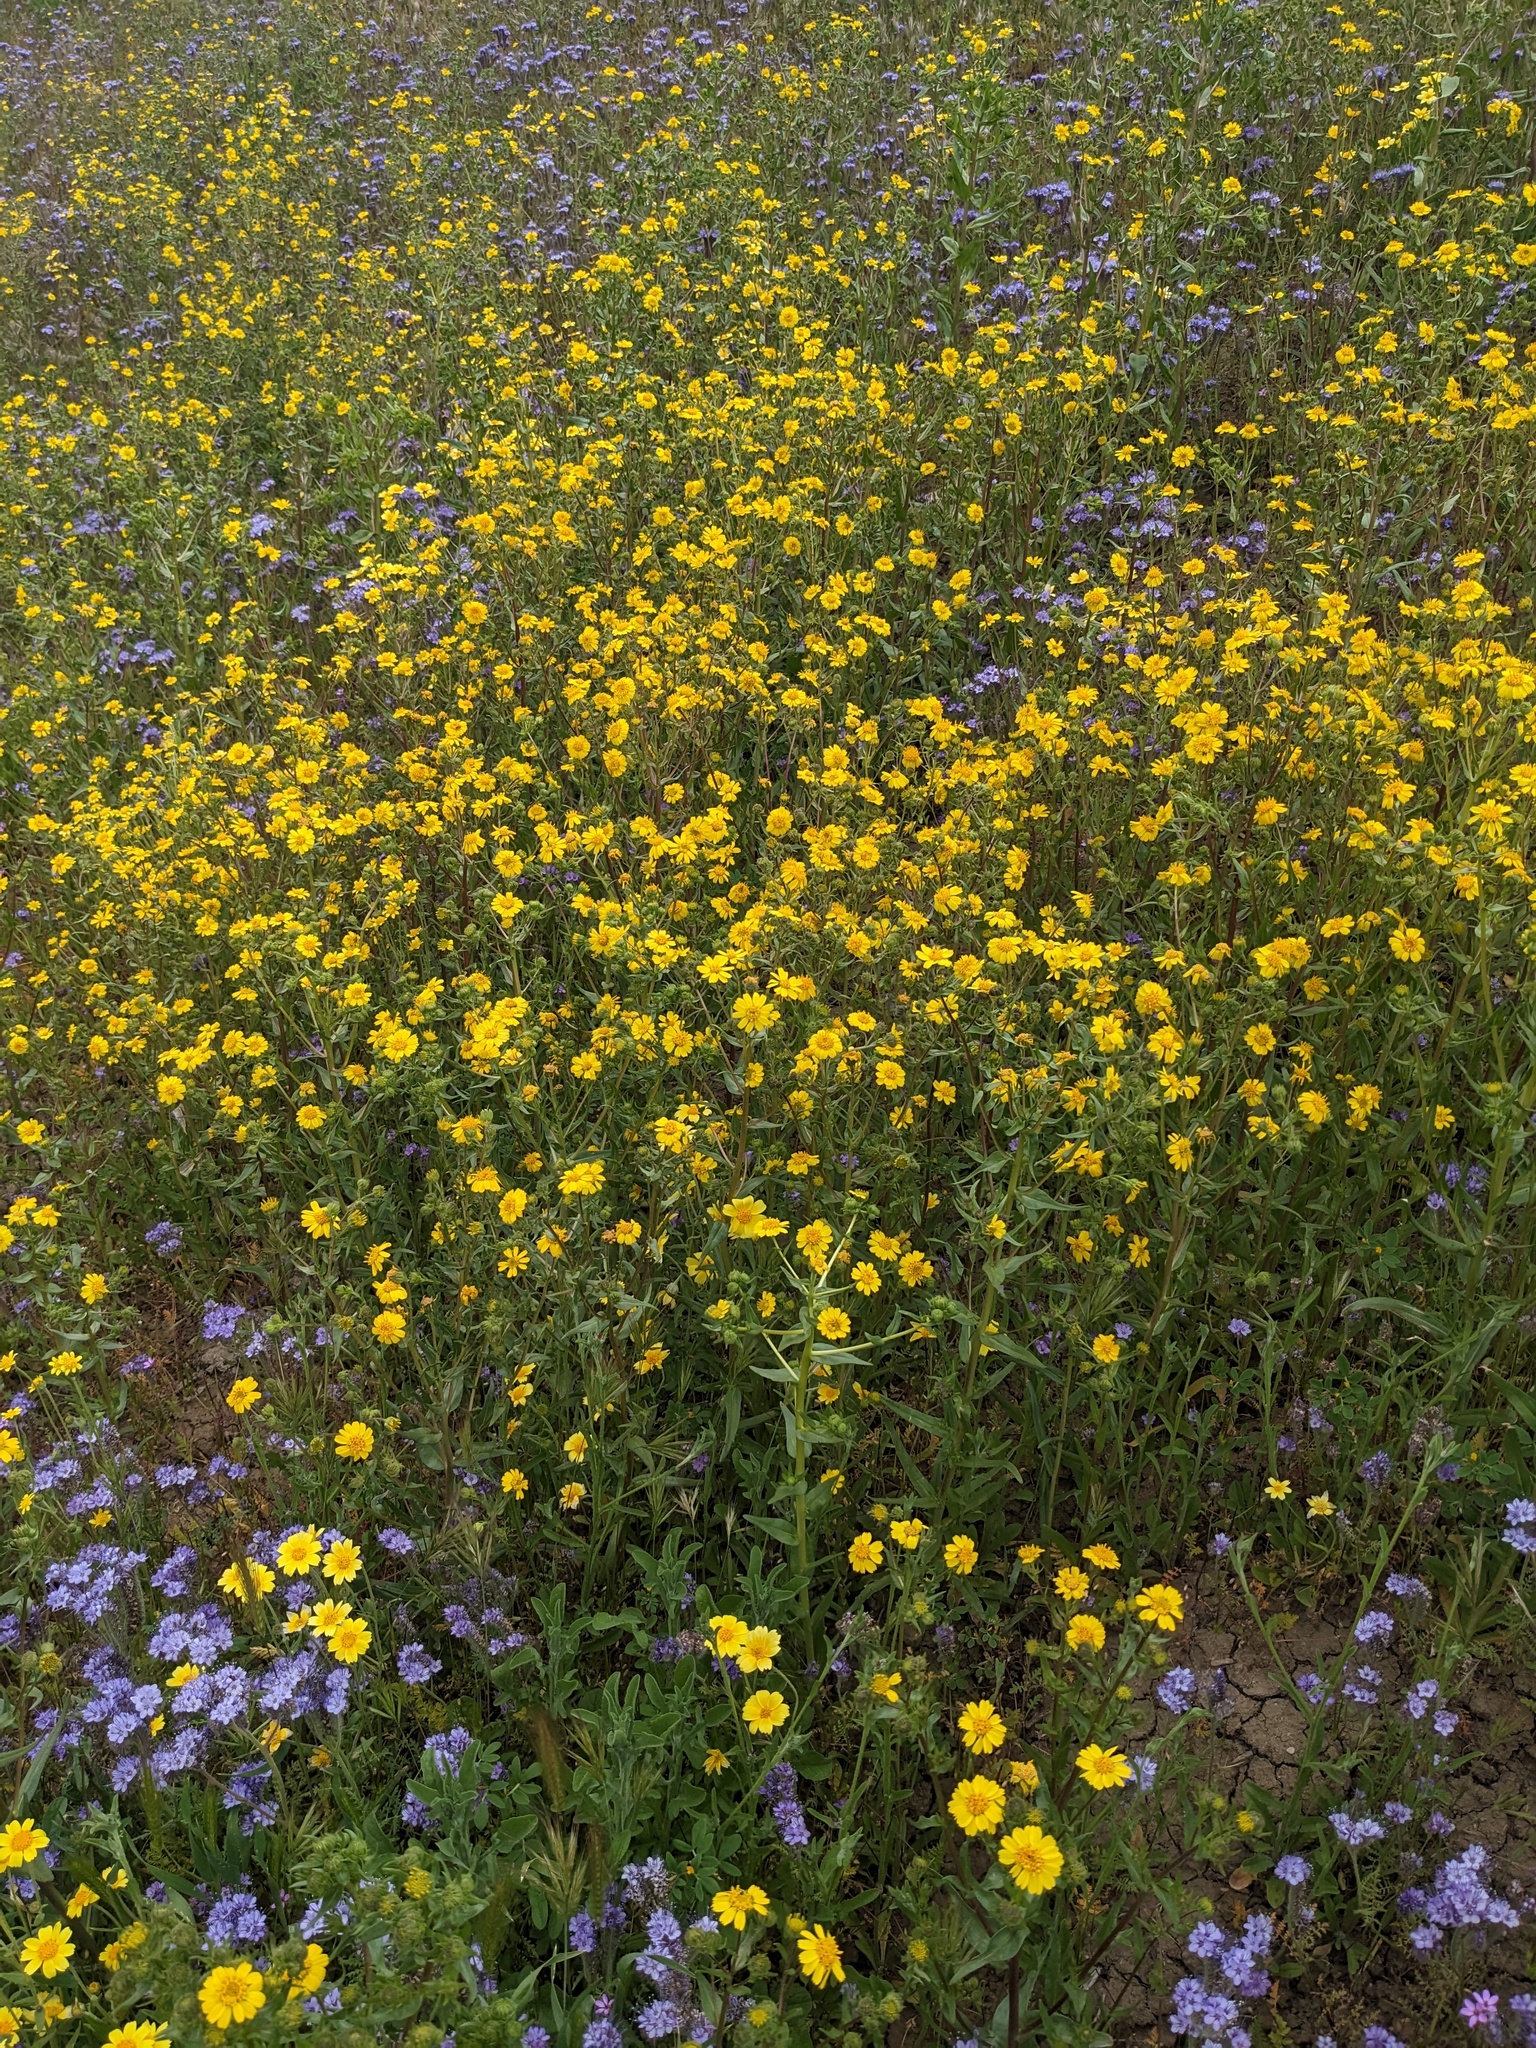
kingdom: Plantae
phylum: Tracheophyta
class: Magnoliopsida
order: Asterales
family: Asteraceae
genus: Deinandra
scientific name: Deinandra halliana
